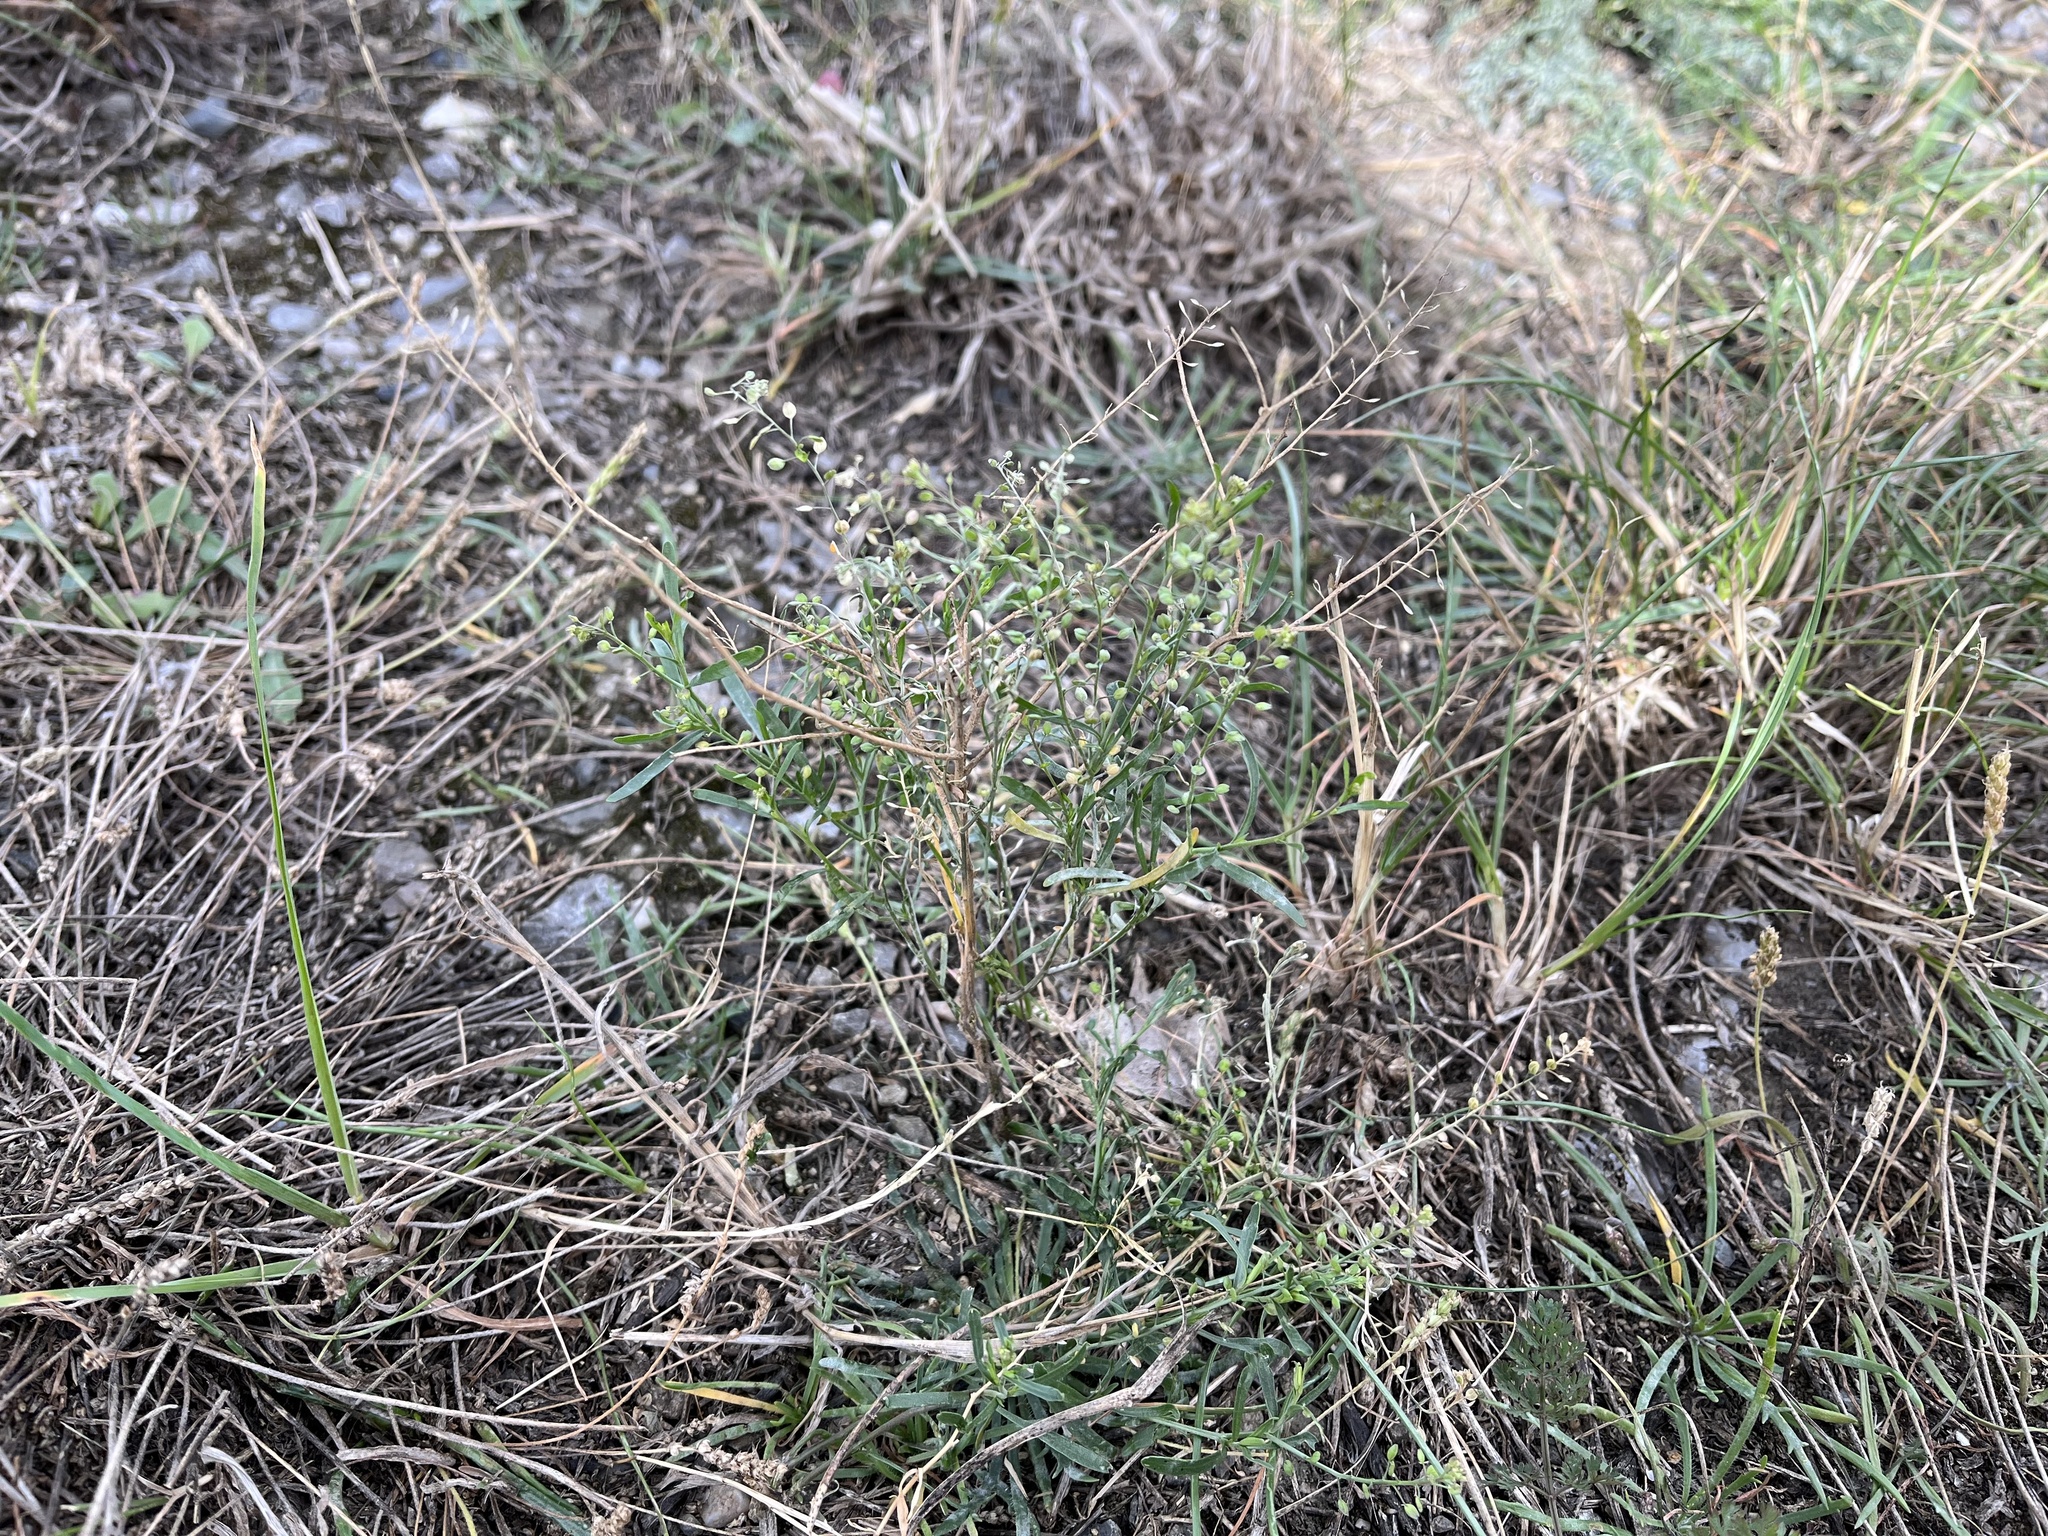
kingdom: Plantae
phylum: Tracheophyta
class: Magnoliopsida
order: Brassicales
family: Brassicaceae
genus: Lepidium
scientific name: Lepidium ruderale
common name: Narrow-leaved pepperwort
